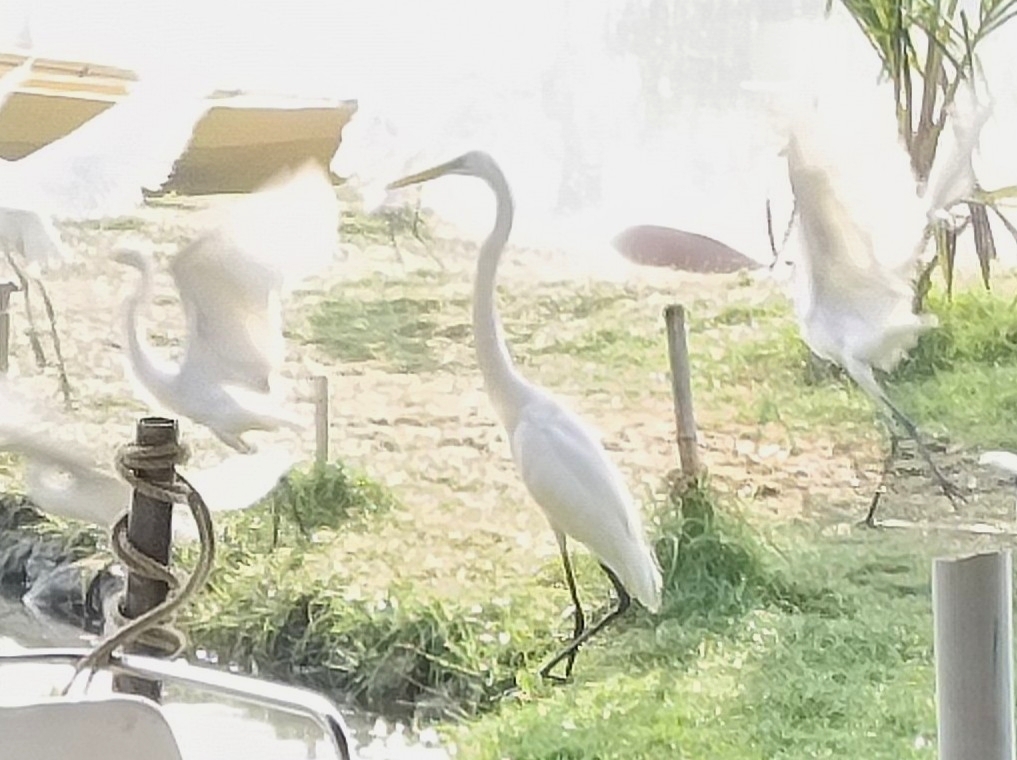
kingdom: Animalia
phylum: Chordata
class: Aves
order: Pelecaniformes
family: Ardeidae
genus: Ardea
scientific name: Ardea alba
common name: Great egret
